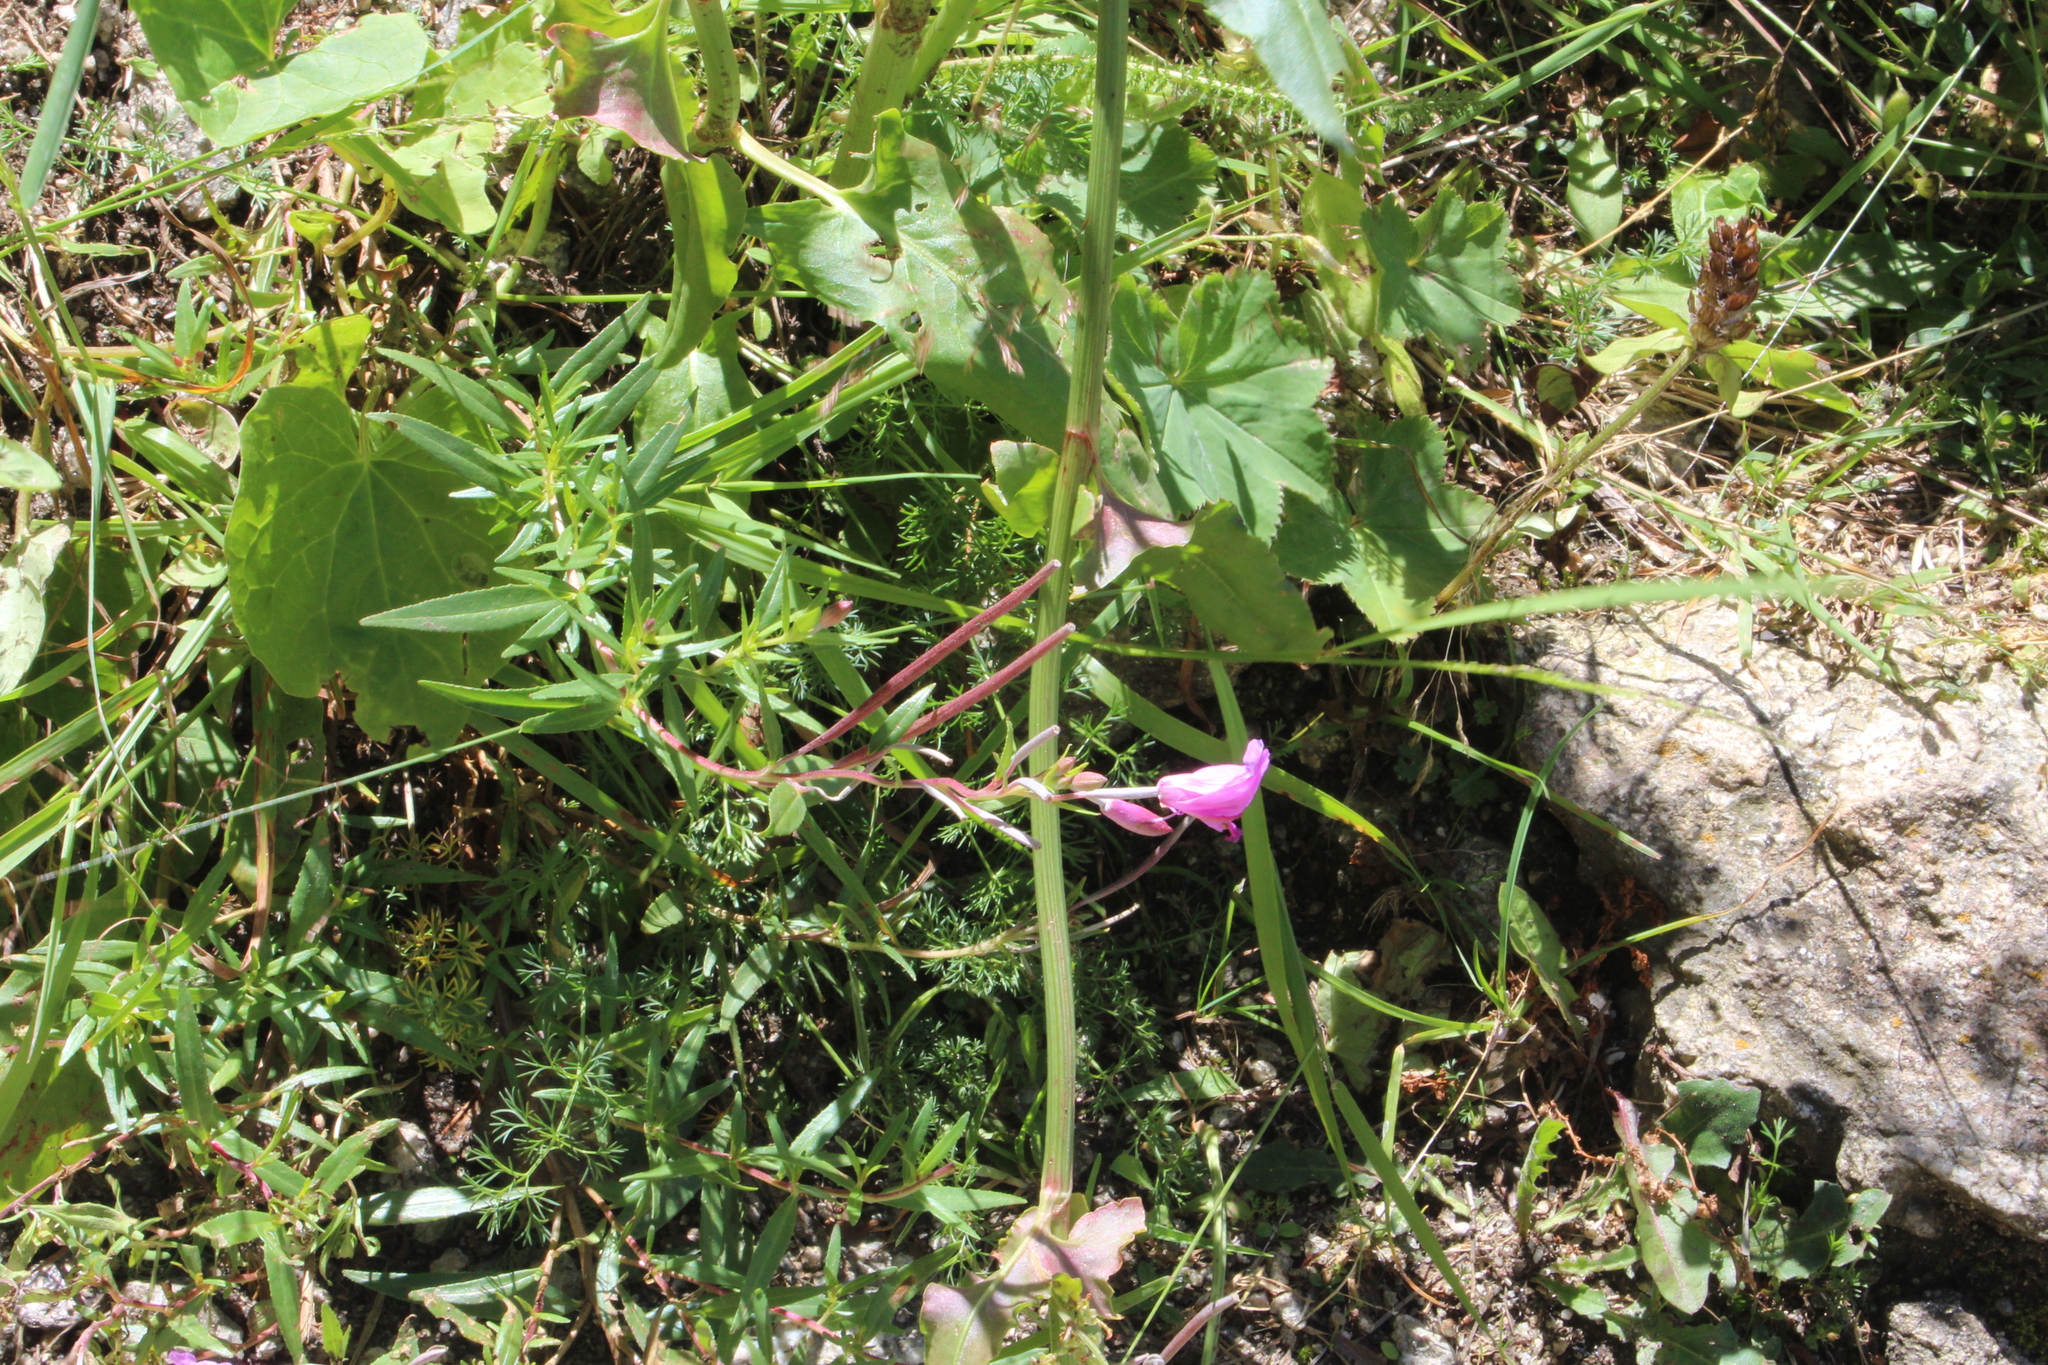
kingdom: Plantae
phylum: Tracheophyta
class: Magnoliopsida
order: Myrtales
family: Onagraceae
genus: Chamaenerion
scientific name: Chamaenerion colchicum
